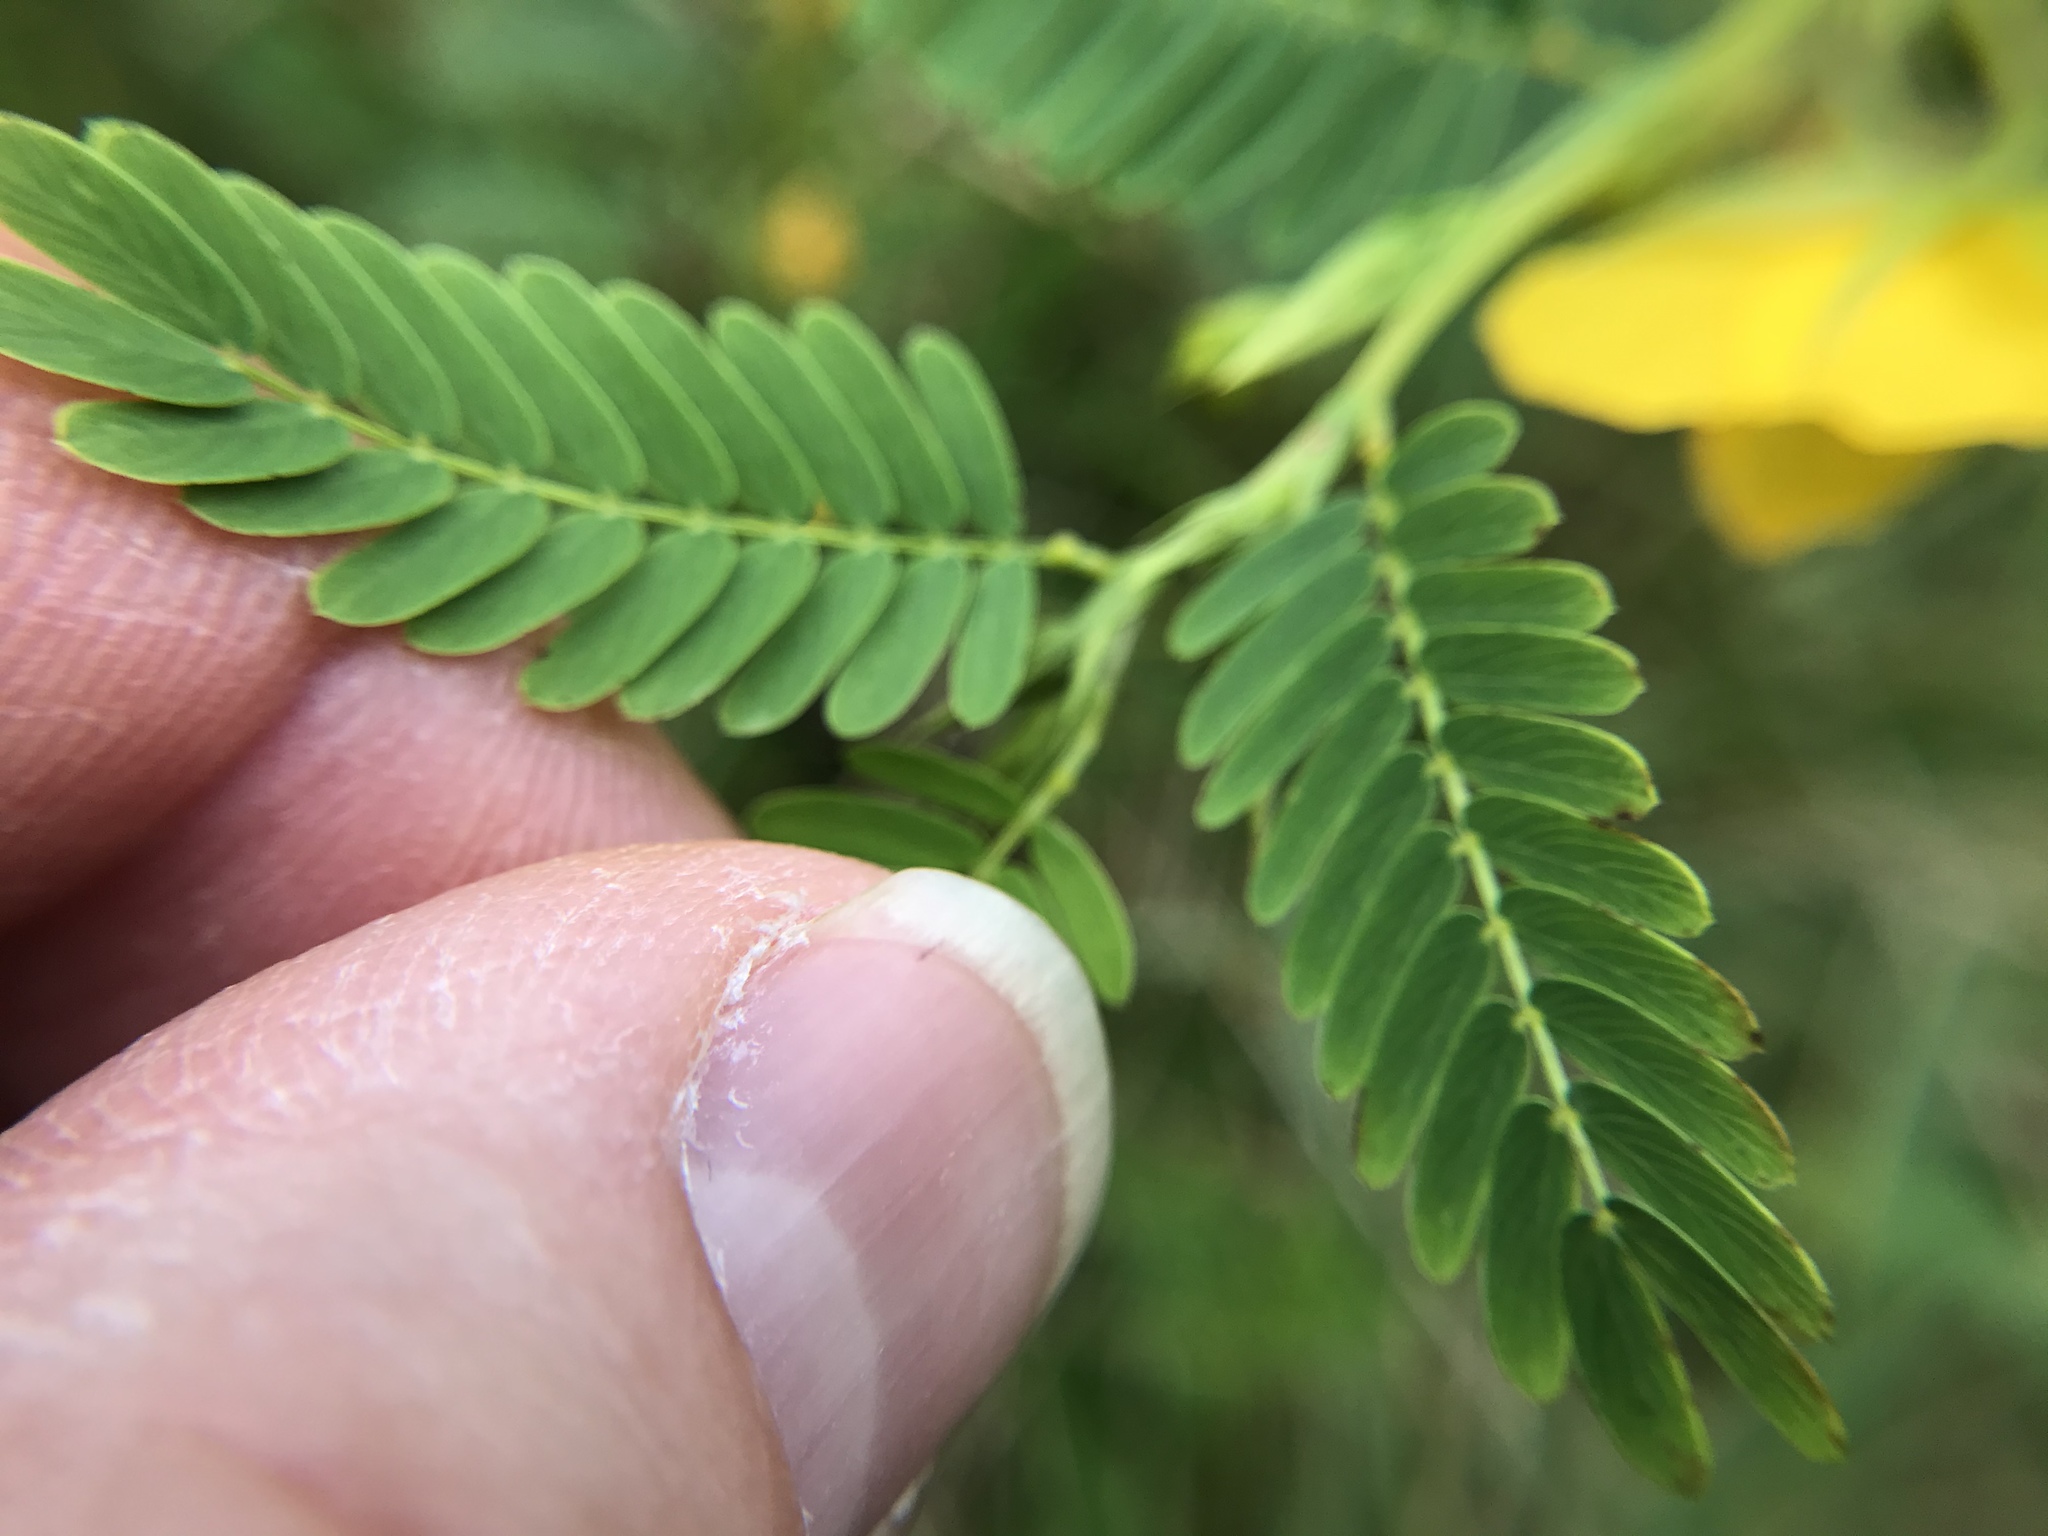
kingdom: Plantae
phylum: Tracheophyta
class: Magnoliopsida
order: Fabales
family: Fabaceae
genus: Chamaecrista
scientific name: Chamaecrista fasciculata
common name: Golden cassia
